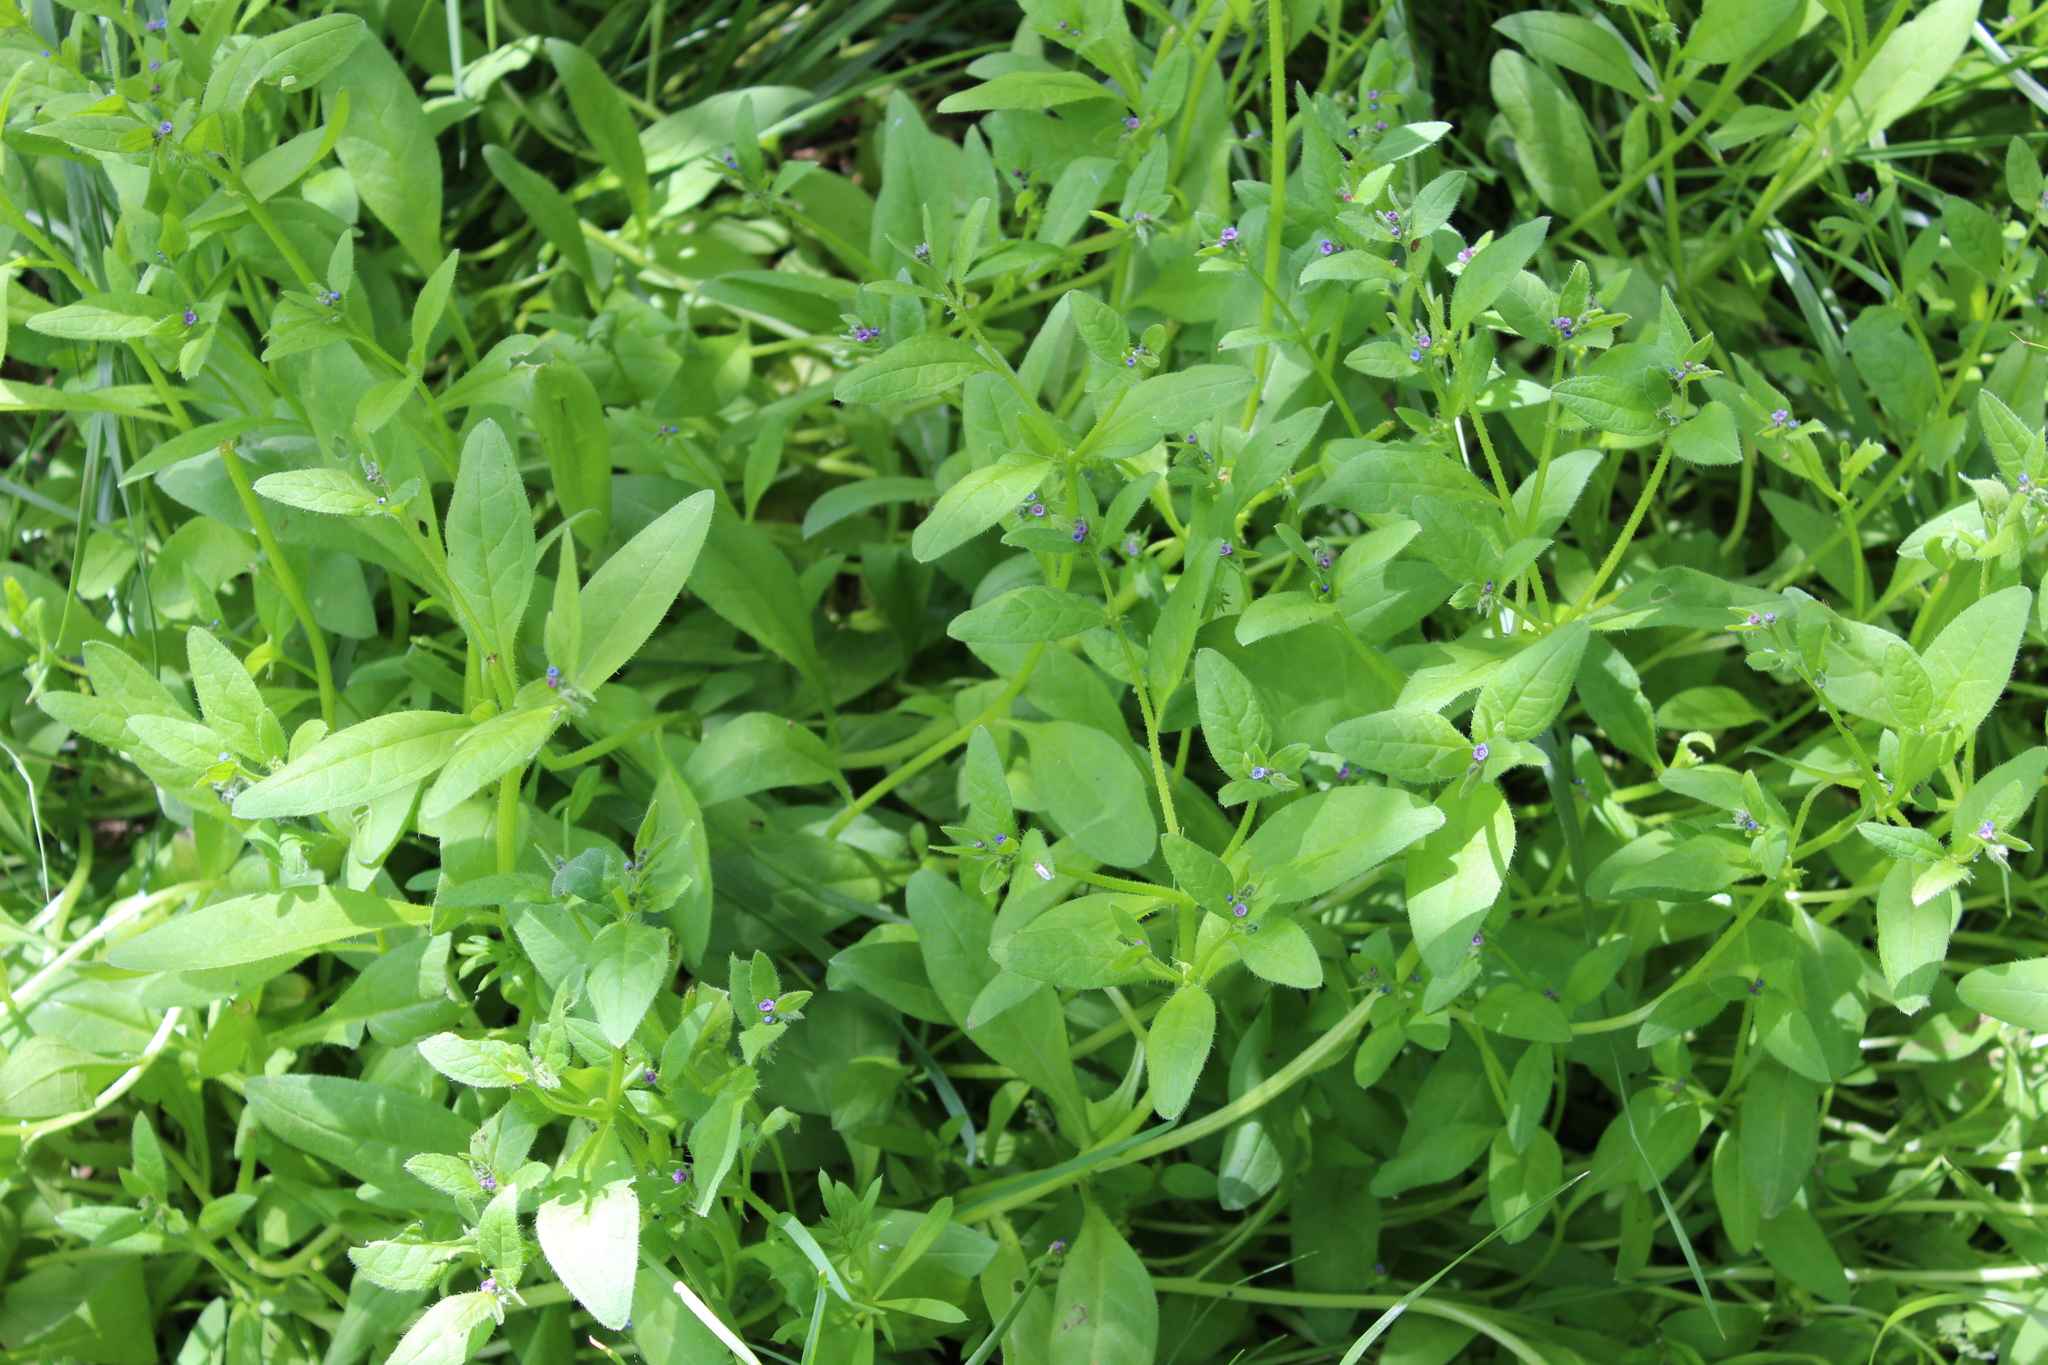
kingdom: Plantae
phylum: Tracheophyta
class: Magnoliopsida
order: Boraginales
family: Boraginaceae
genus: Asperugo
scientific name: Asperugo procumbens
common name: Madwort
